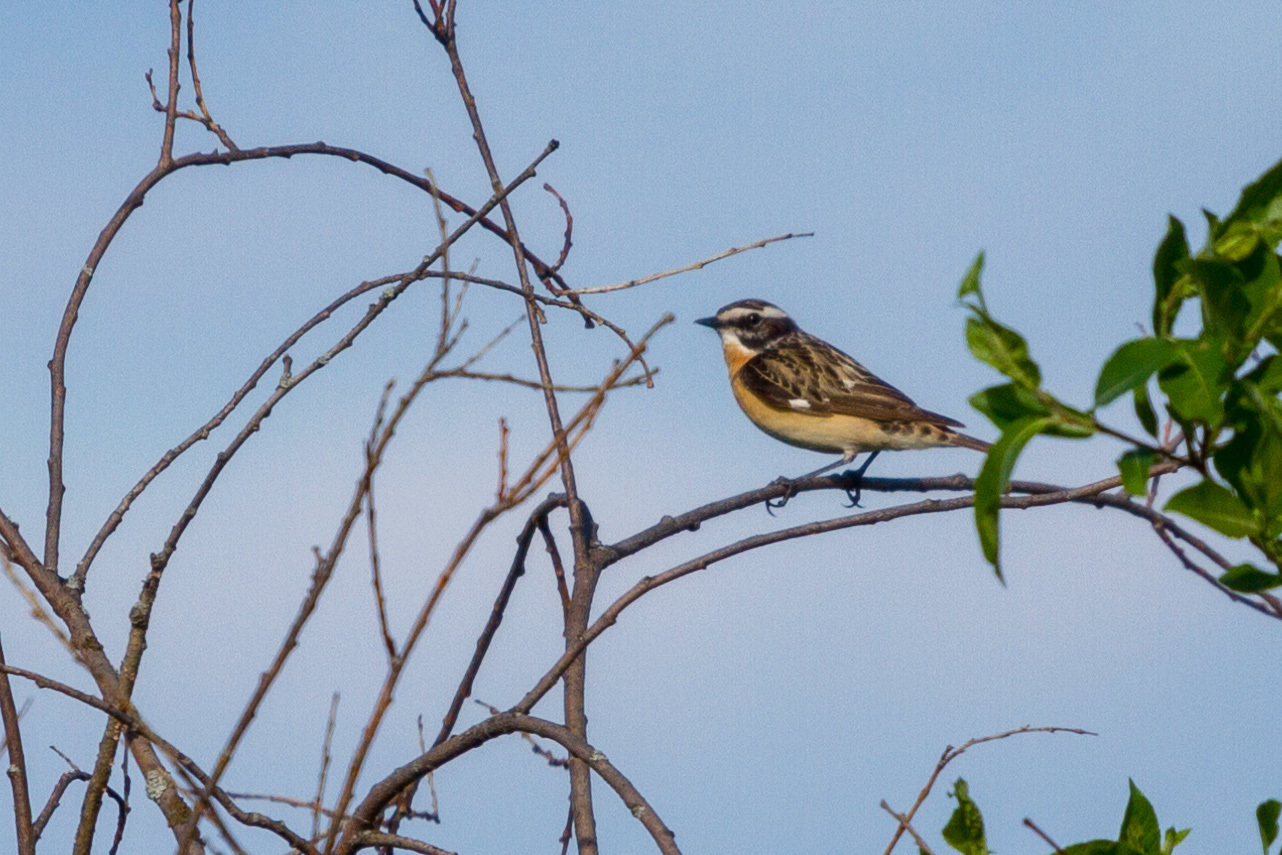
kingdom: Animalia
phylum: Chordata
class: Aves
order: Passeriformes
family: Muscicapidae
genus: Saxicola
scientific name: Saxicola rubetra
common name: Whinchat
